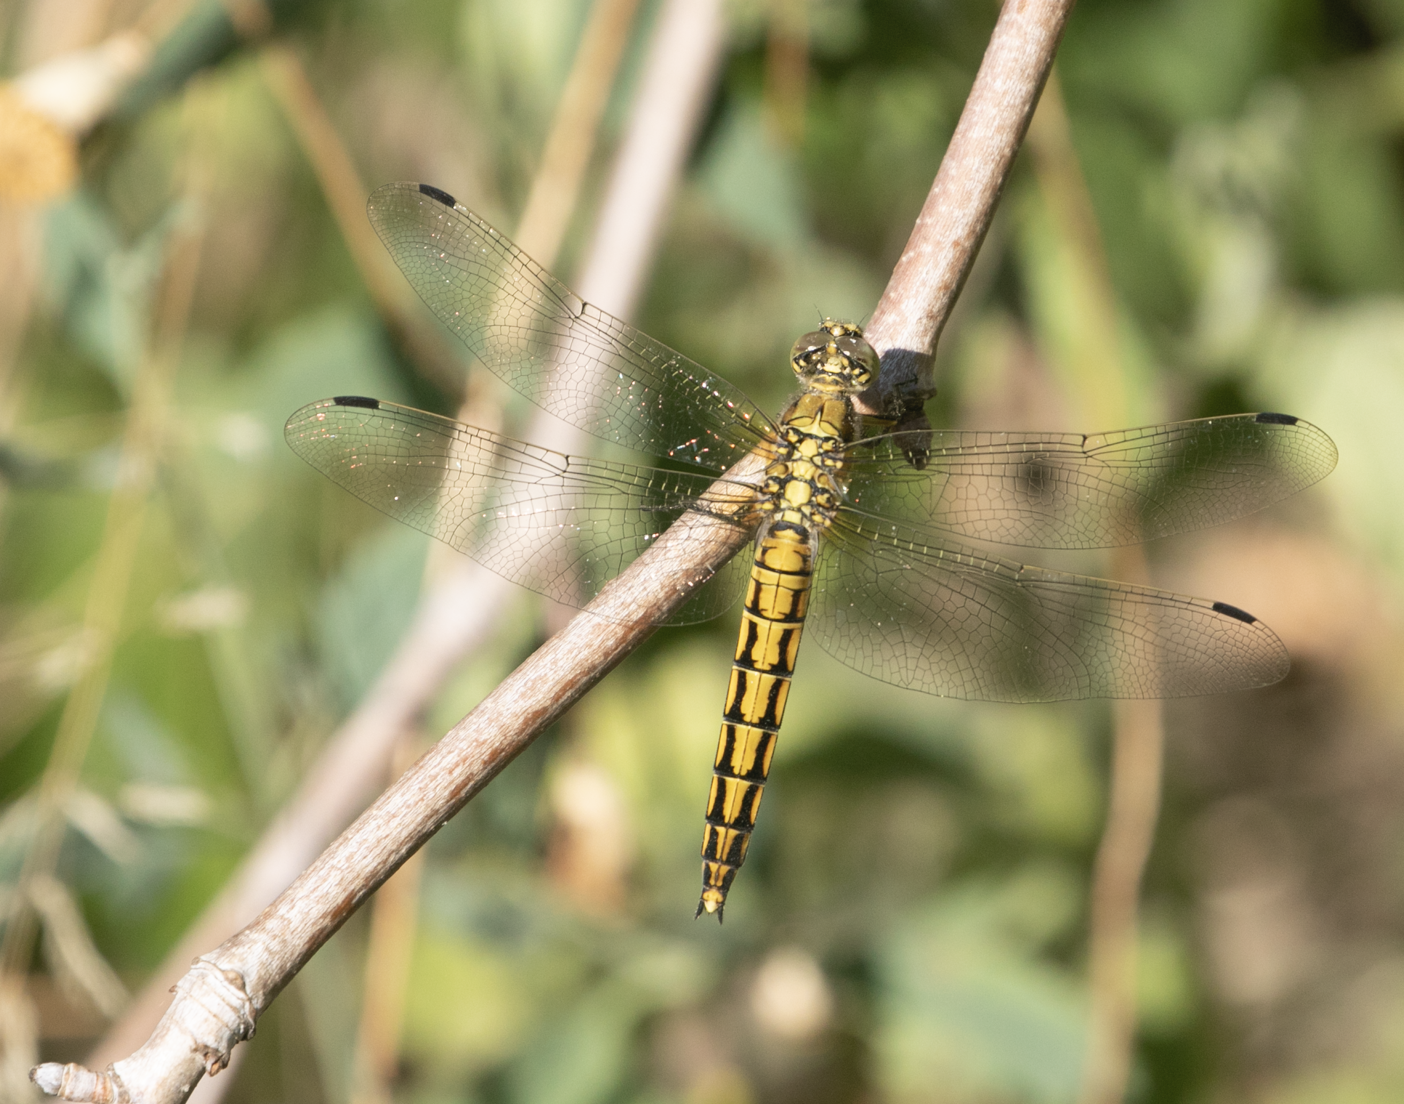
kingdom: Animalia
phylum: Arthropoda
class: Insecta
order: Odonata
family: Libellulidae
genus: Orthetrum
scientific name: Orthetrum cancellatum
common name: Black-tailed skimmer
